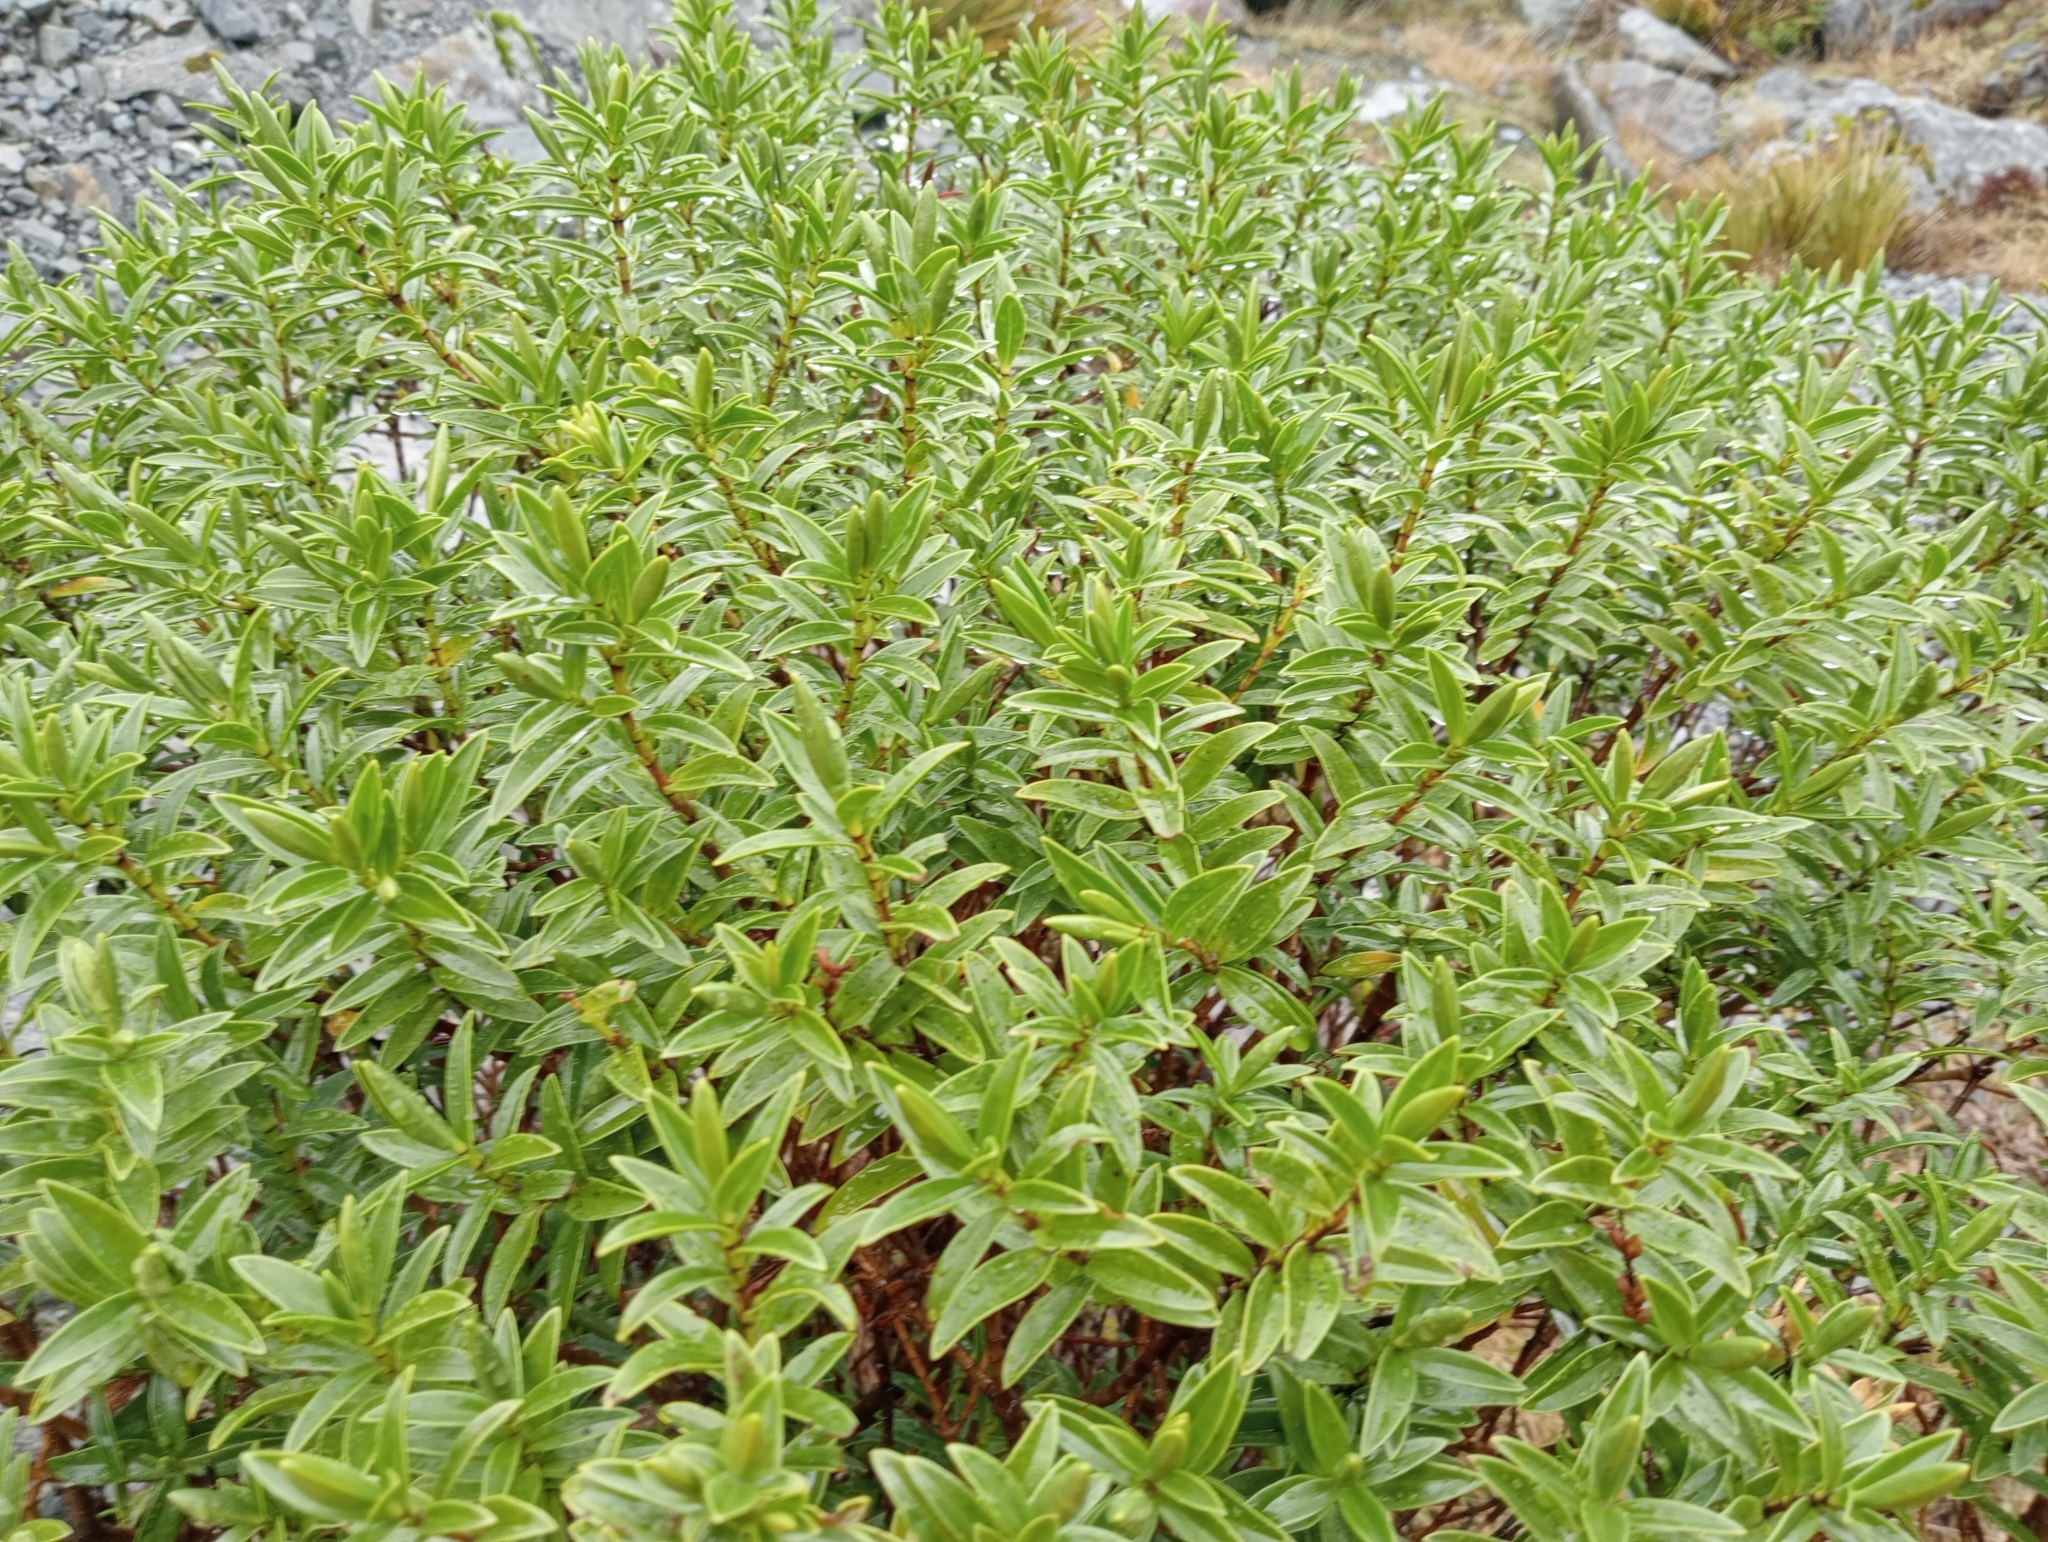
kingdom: Plantae
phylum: Tracheophyta
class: Magnoliopsida
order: Lamiales
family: Plantaginaceae
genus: Veronica
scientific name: Veronica subalpina
